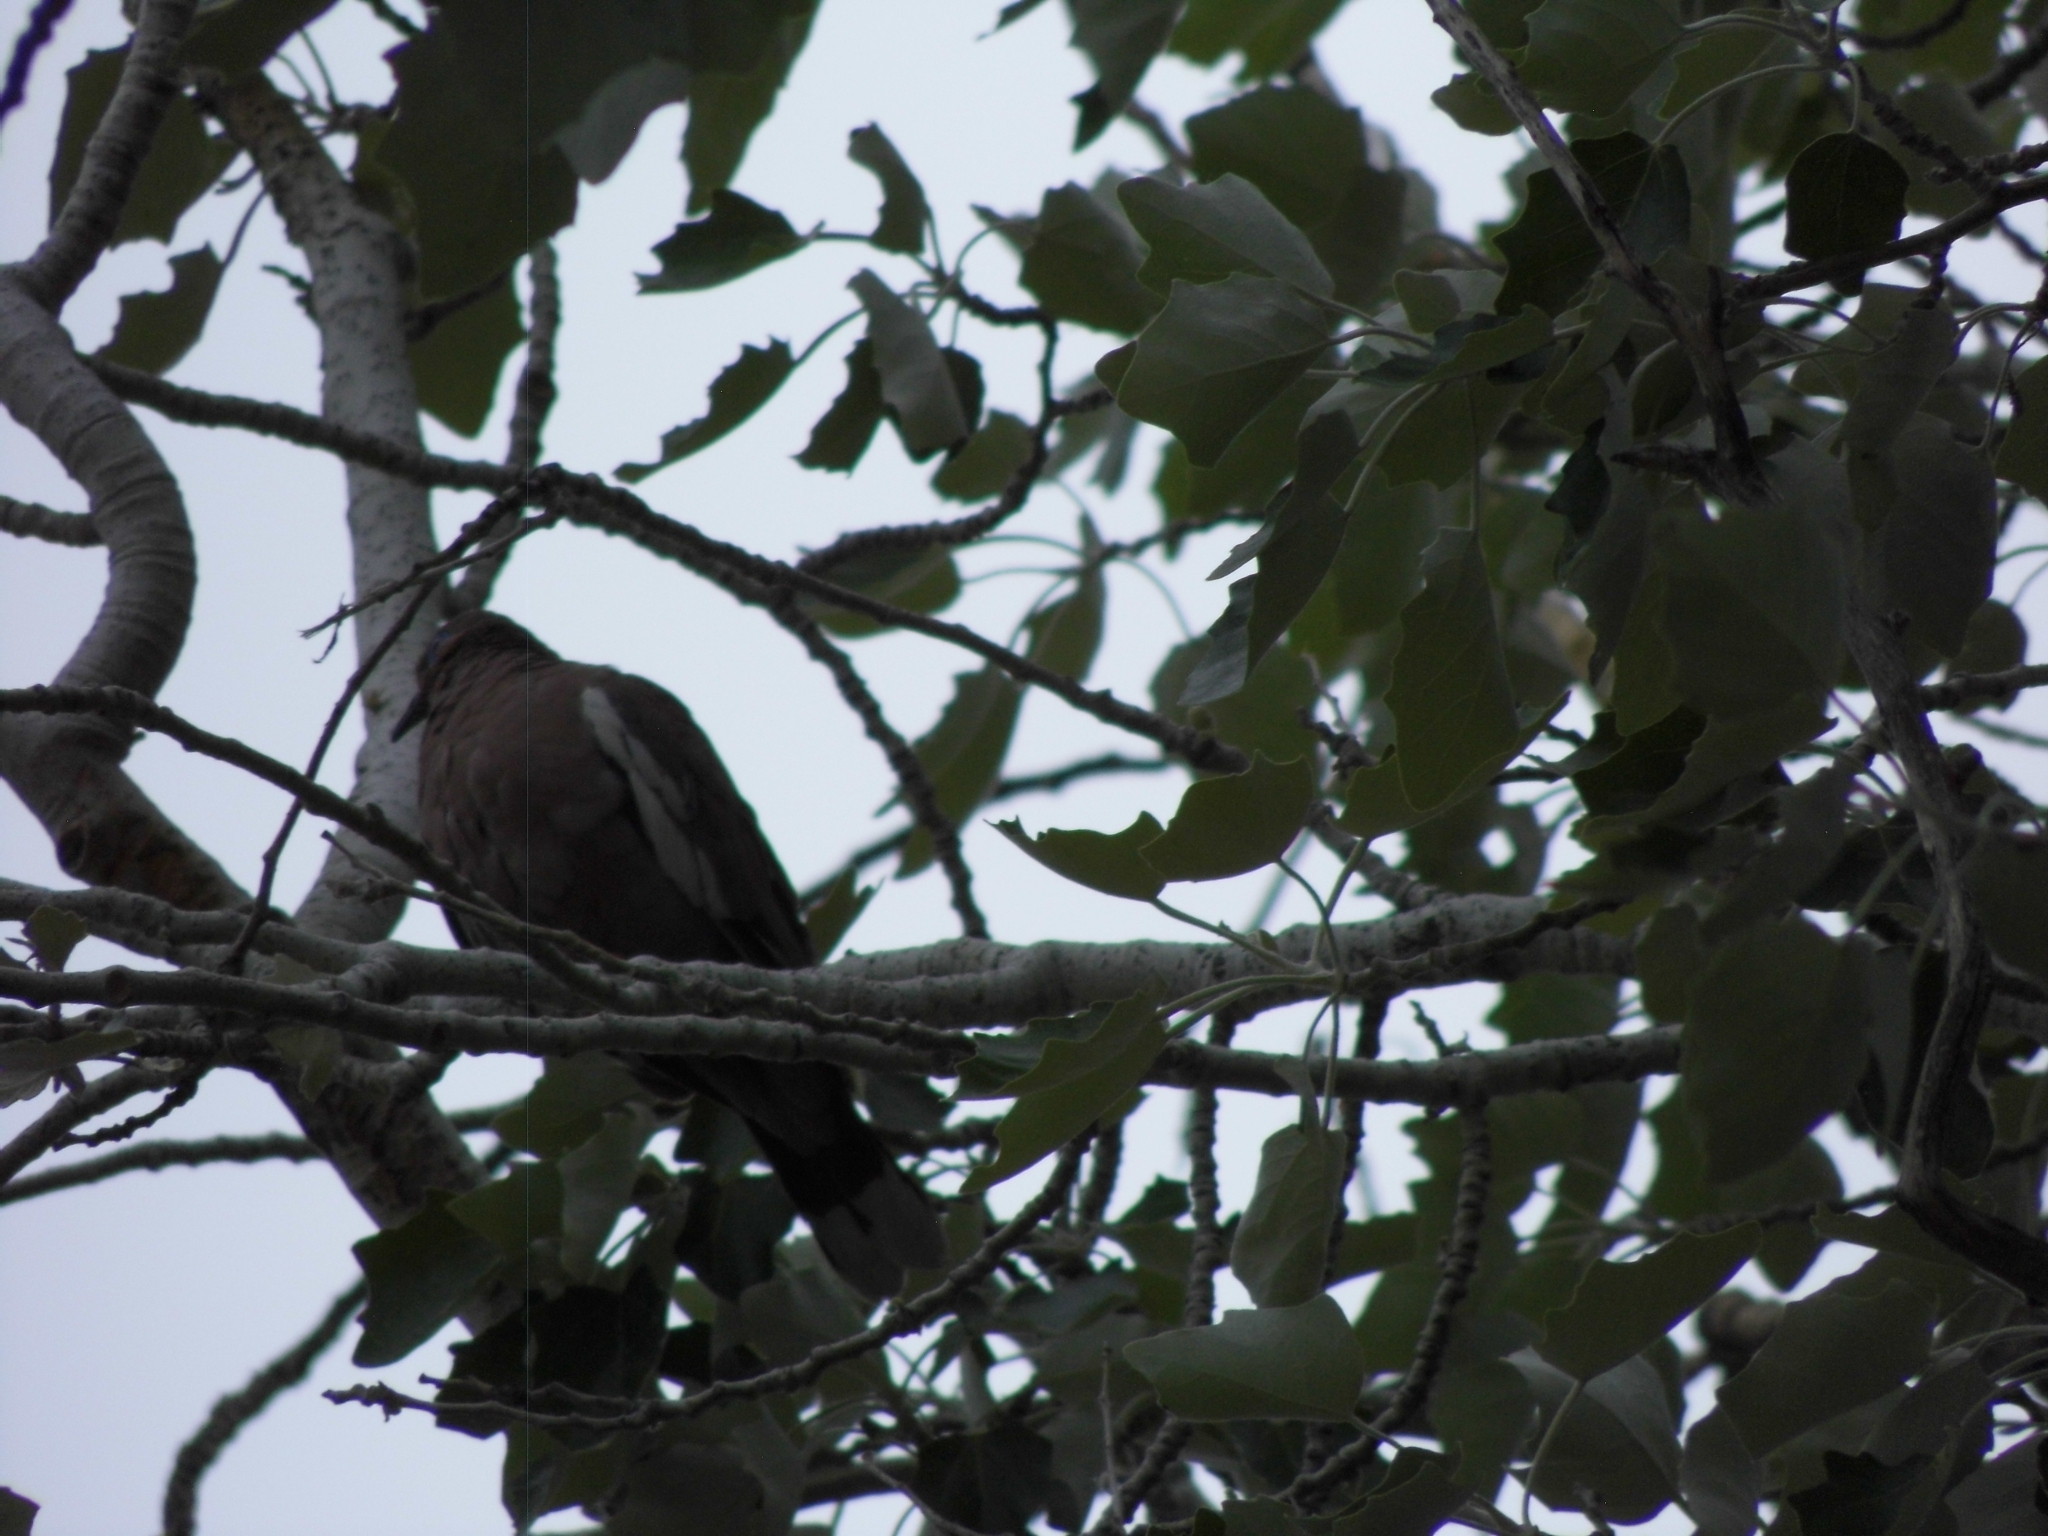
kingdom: Animalia
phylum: Chordata
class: Aves
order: Columbiformes
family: Columbidae
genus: Zenaida
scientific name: Zenaida meloda
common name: West peruvian dove
